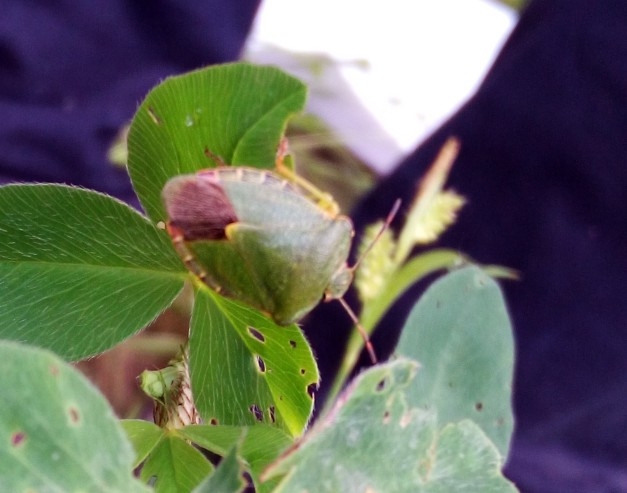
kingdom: Animalia
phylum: Arthropoda
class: Insecta
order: Hemiptera
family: Pentatomidae
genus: Palomena
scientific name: Palomena prasina
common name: Green shieldbug
